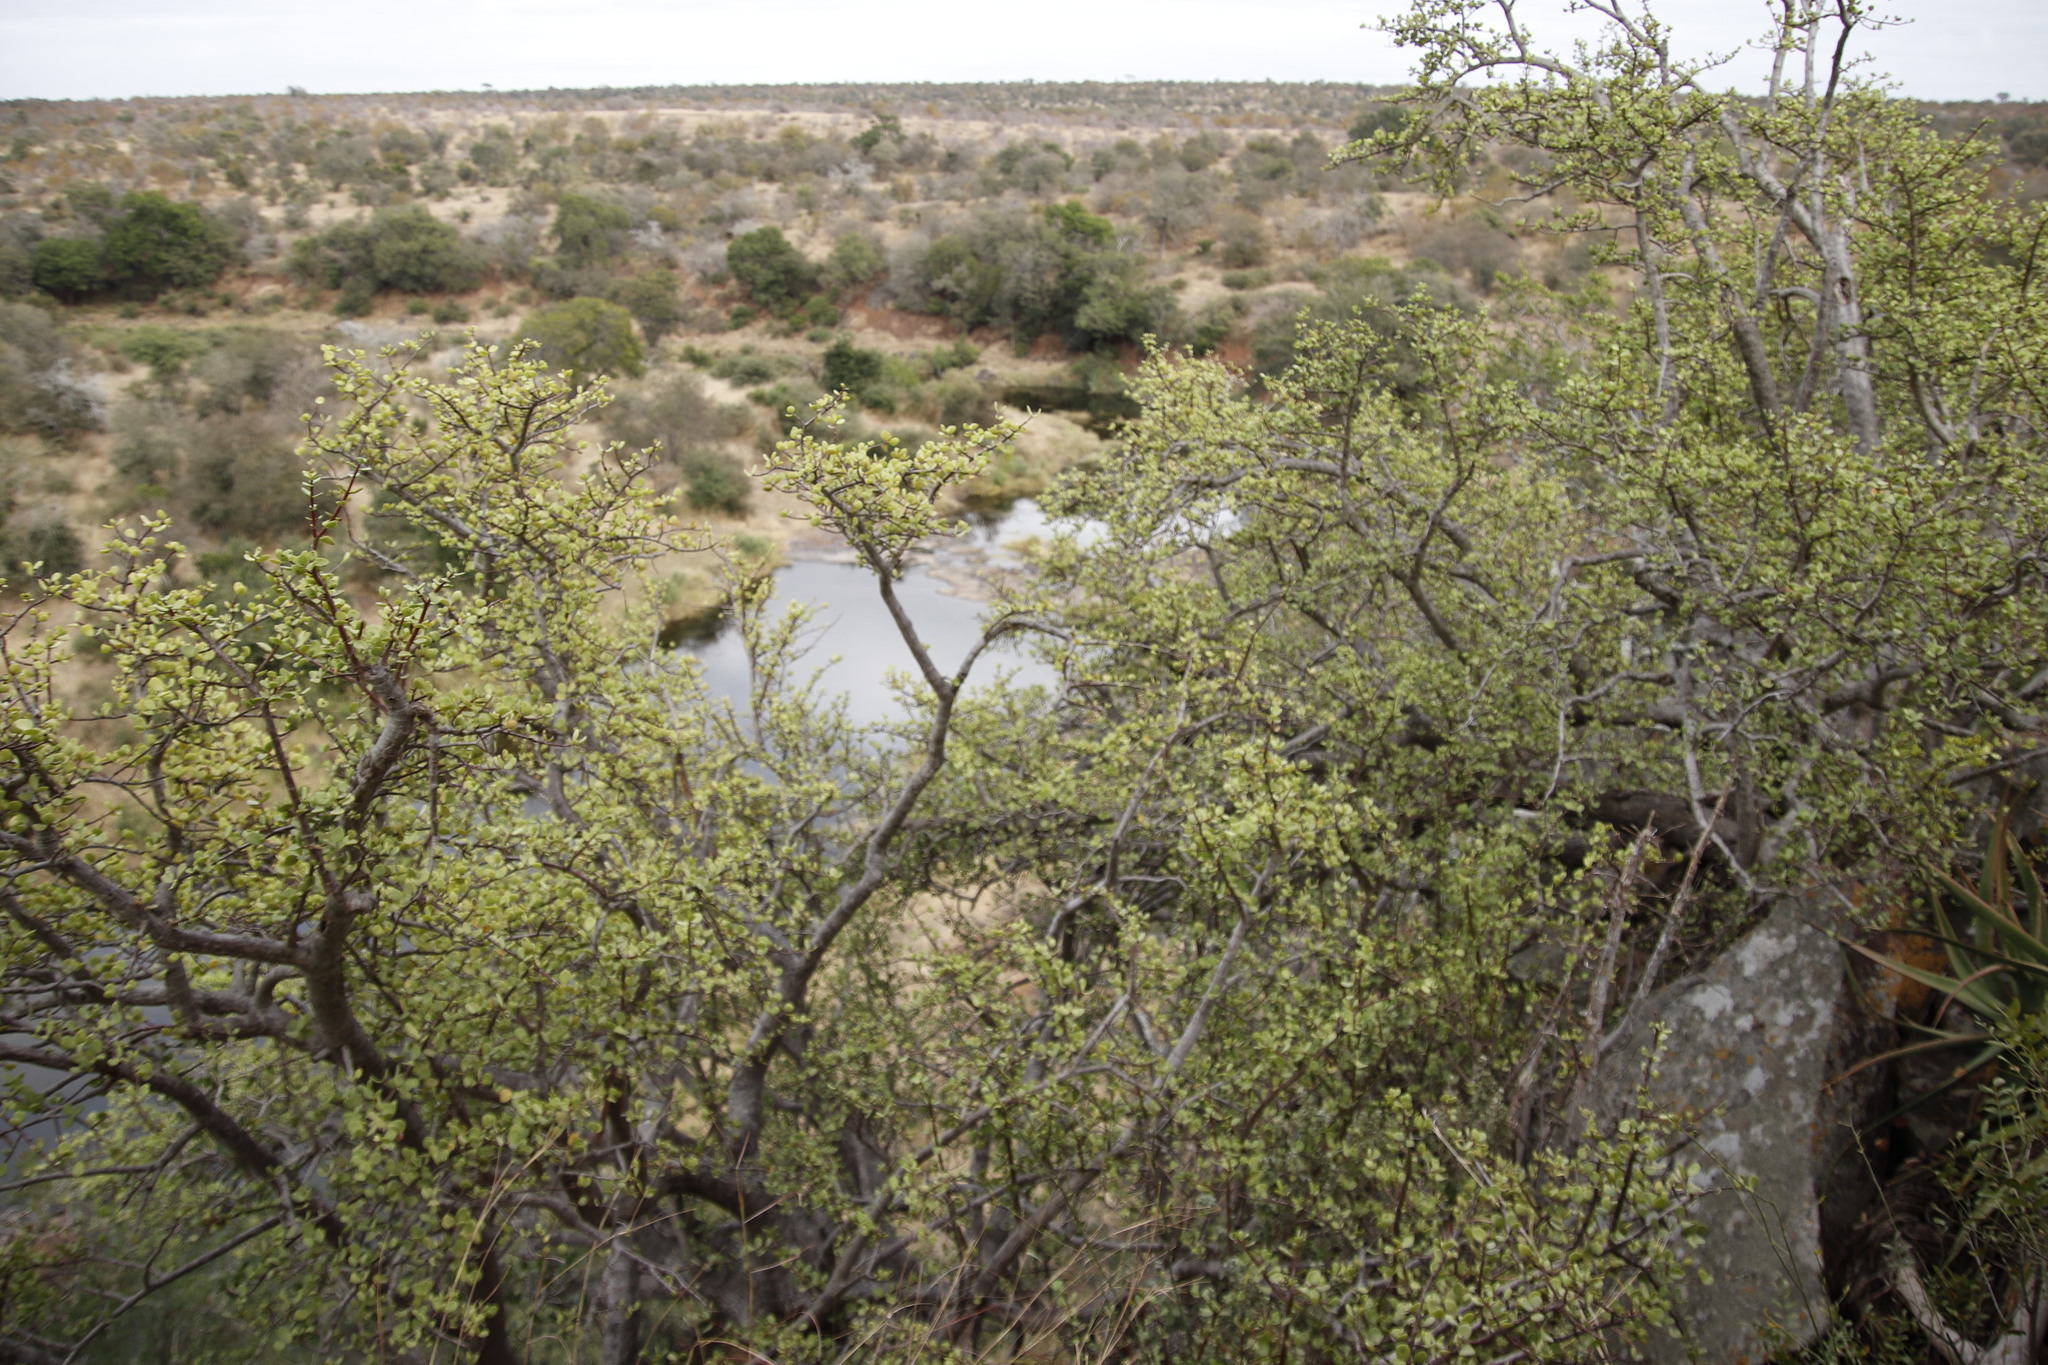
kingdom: Plantae
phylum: Tracheophyta
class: Magnoliopsida
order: Caryophyllales
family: Didiereaceae
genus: Portulacaria
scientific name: Portulacaria afra
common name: Elephant-bush
